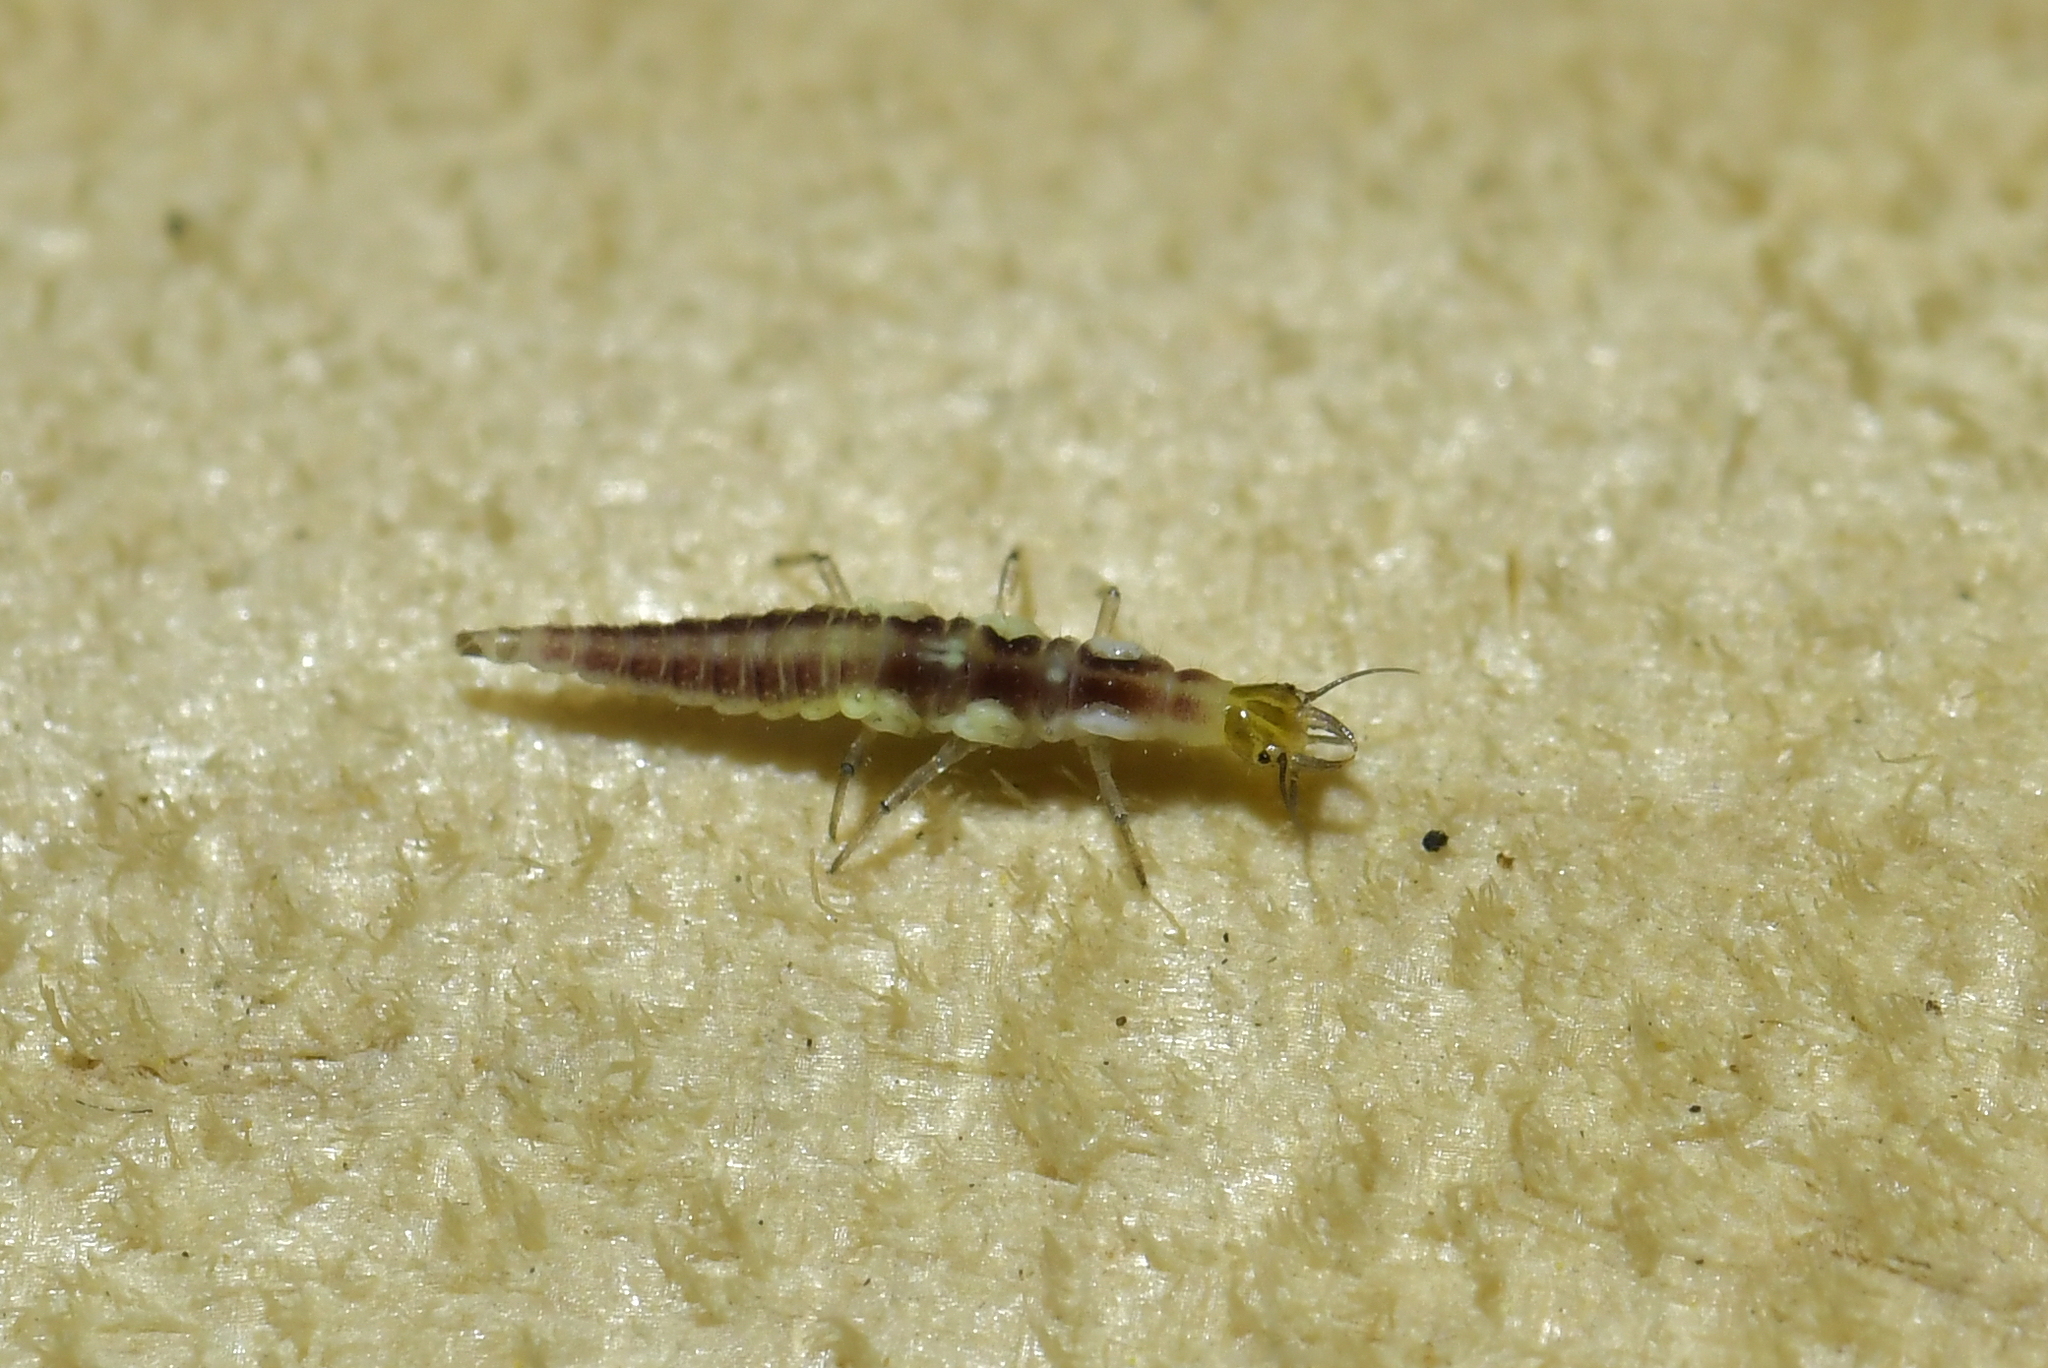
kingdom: Animalia
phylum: Arthropoda
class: Insecta
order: Neuroptera
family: Hemerobiidae
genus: Micromus
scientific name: Micromus tasmaniae
